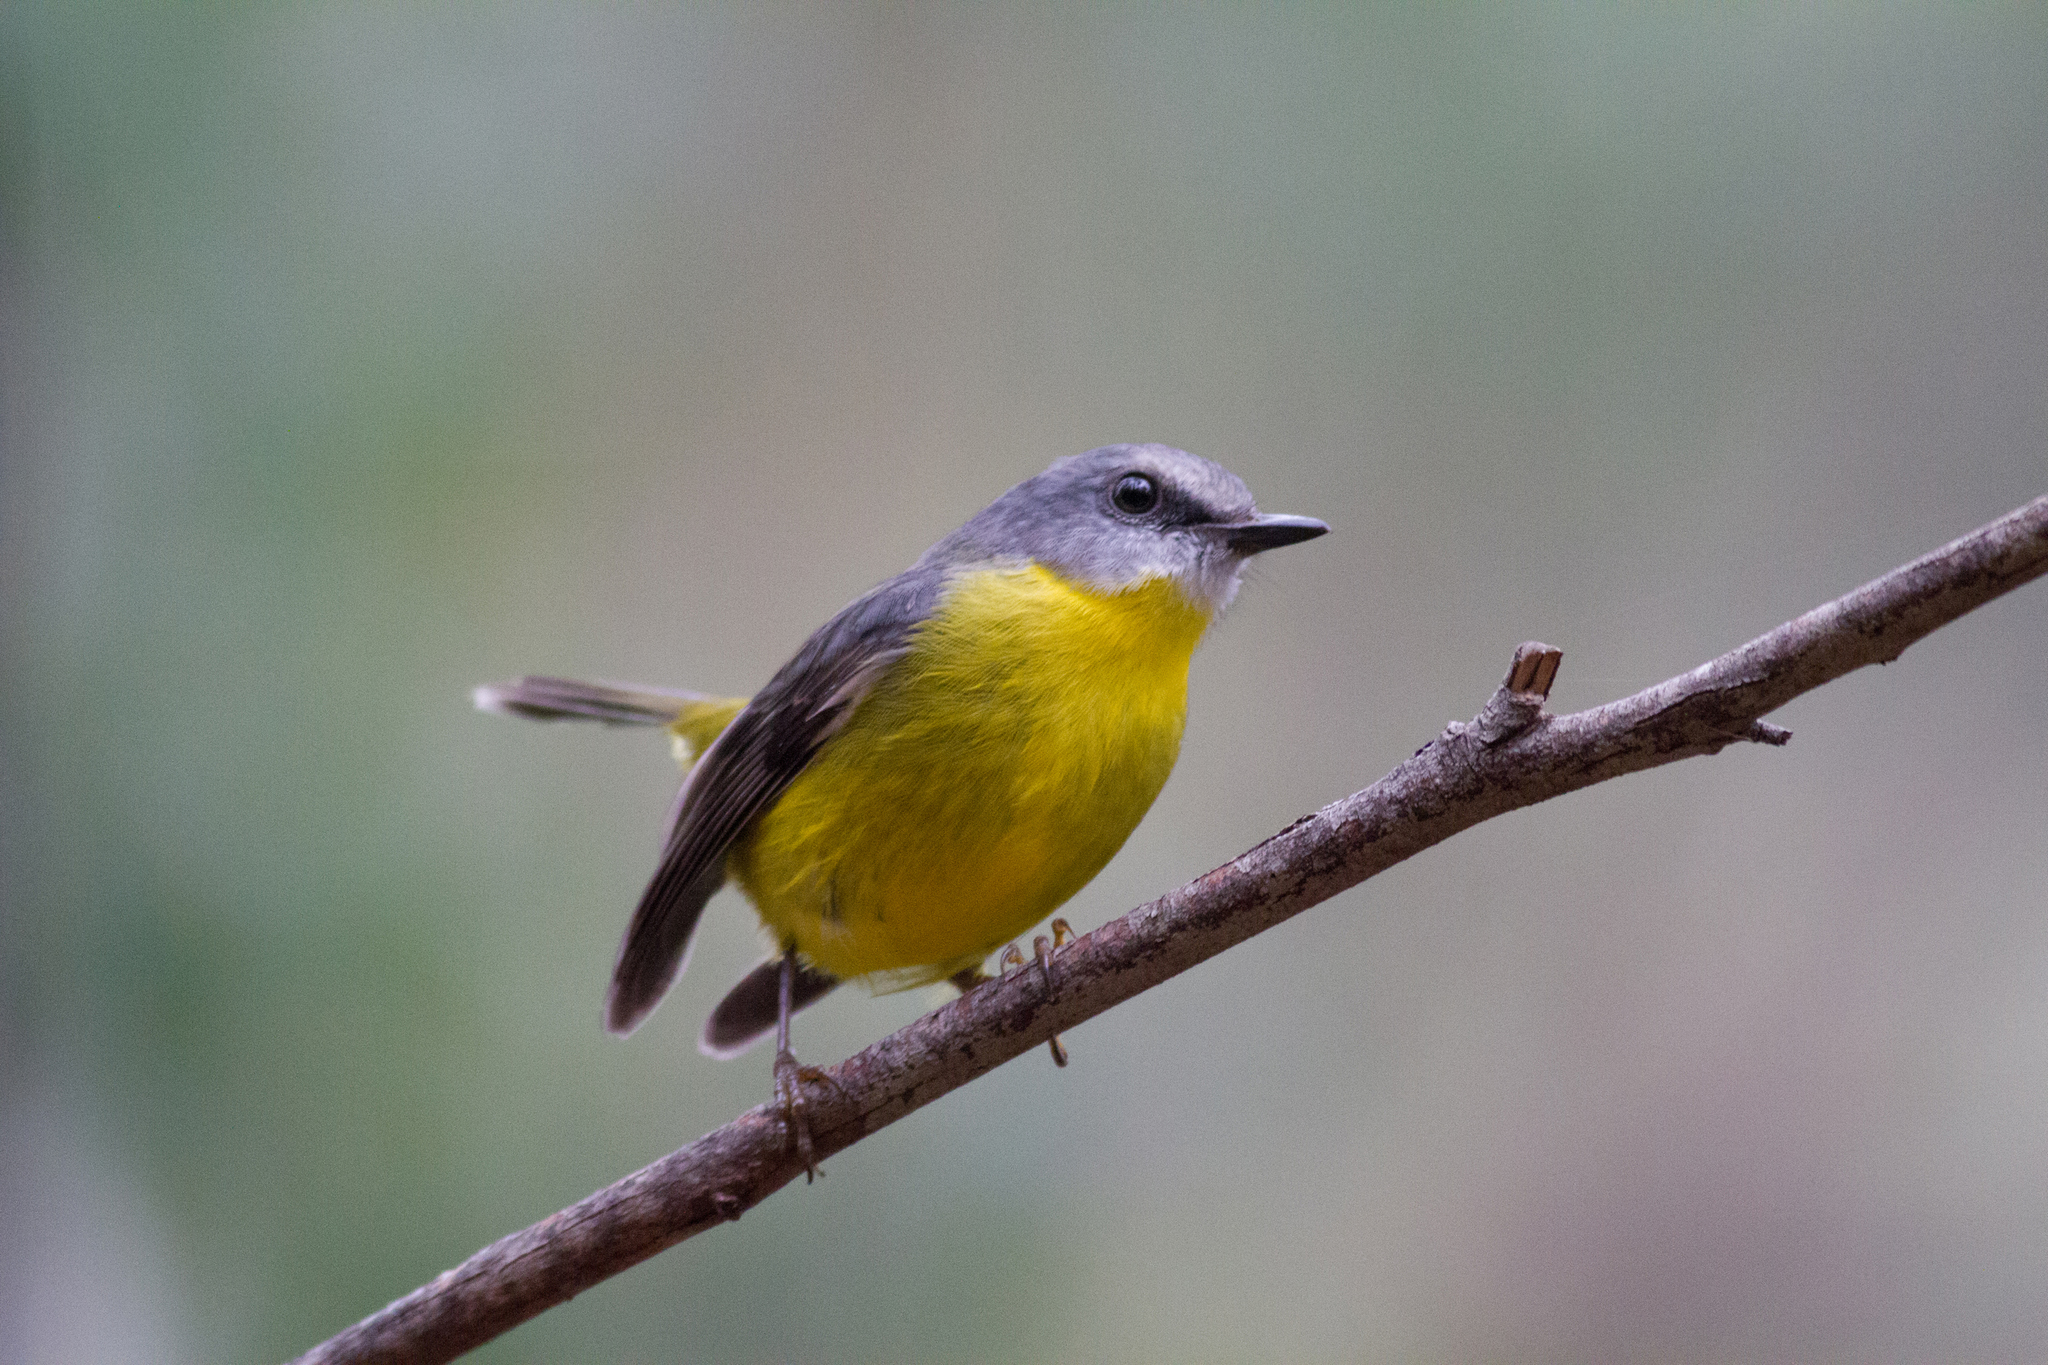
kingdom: Animalia
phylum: Chordata
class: Aves
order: Passeriformes
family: Petroicidae
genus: Eopsaltria
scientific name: Eopsaltria australis
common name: Eastern yellow robin
